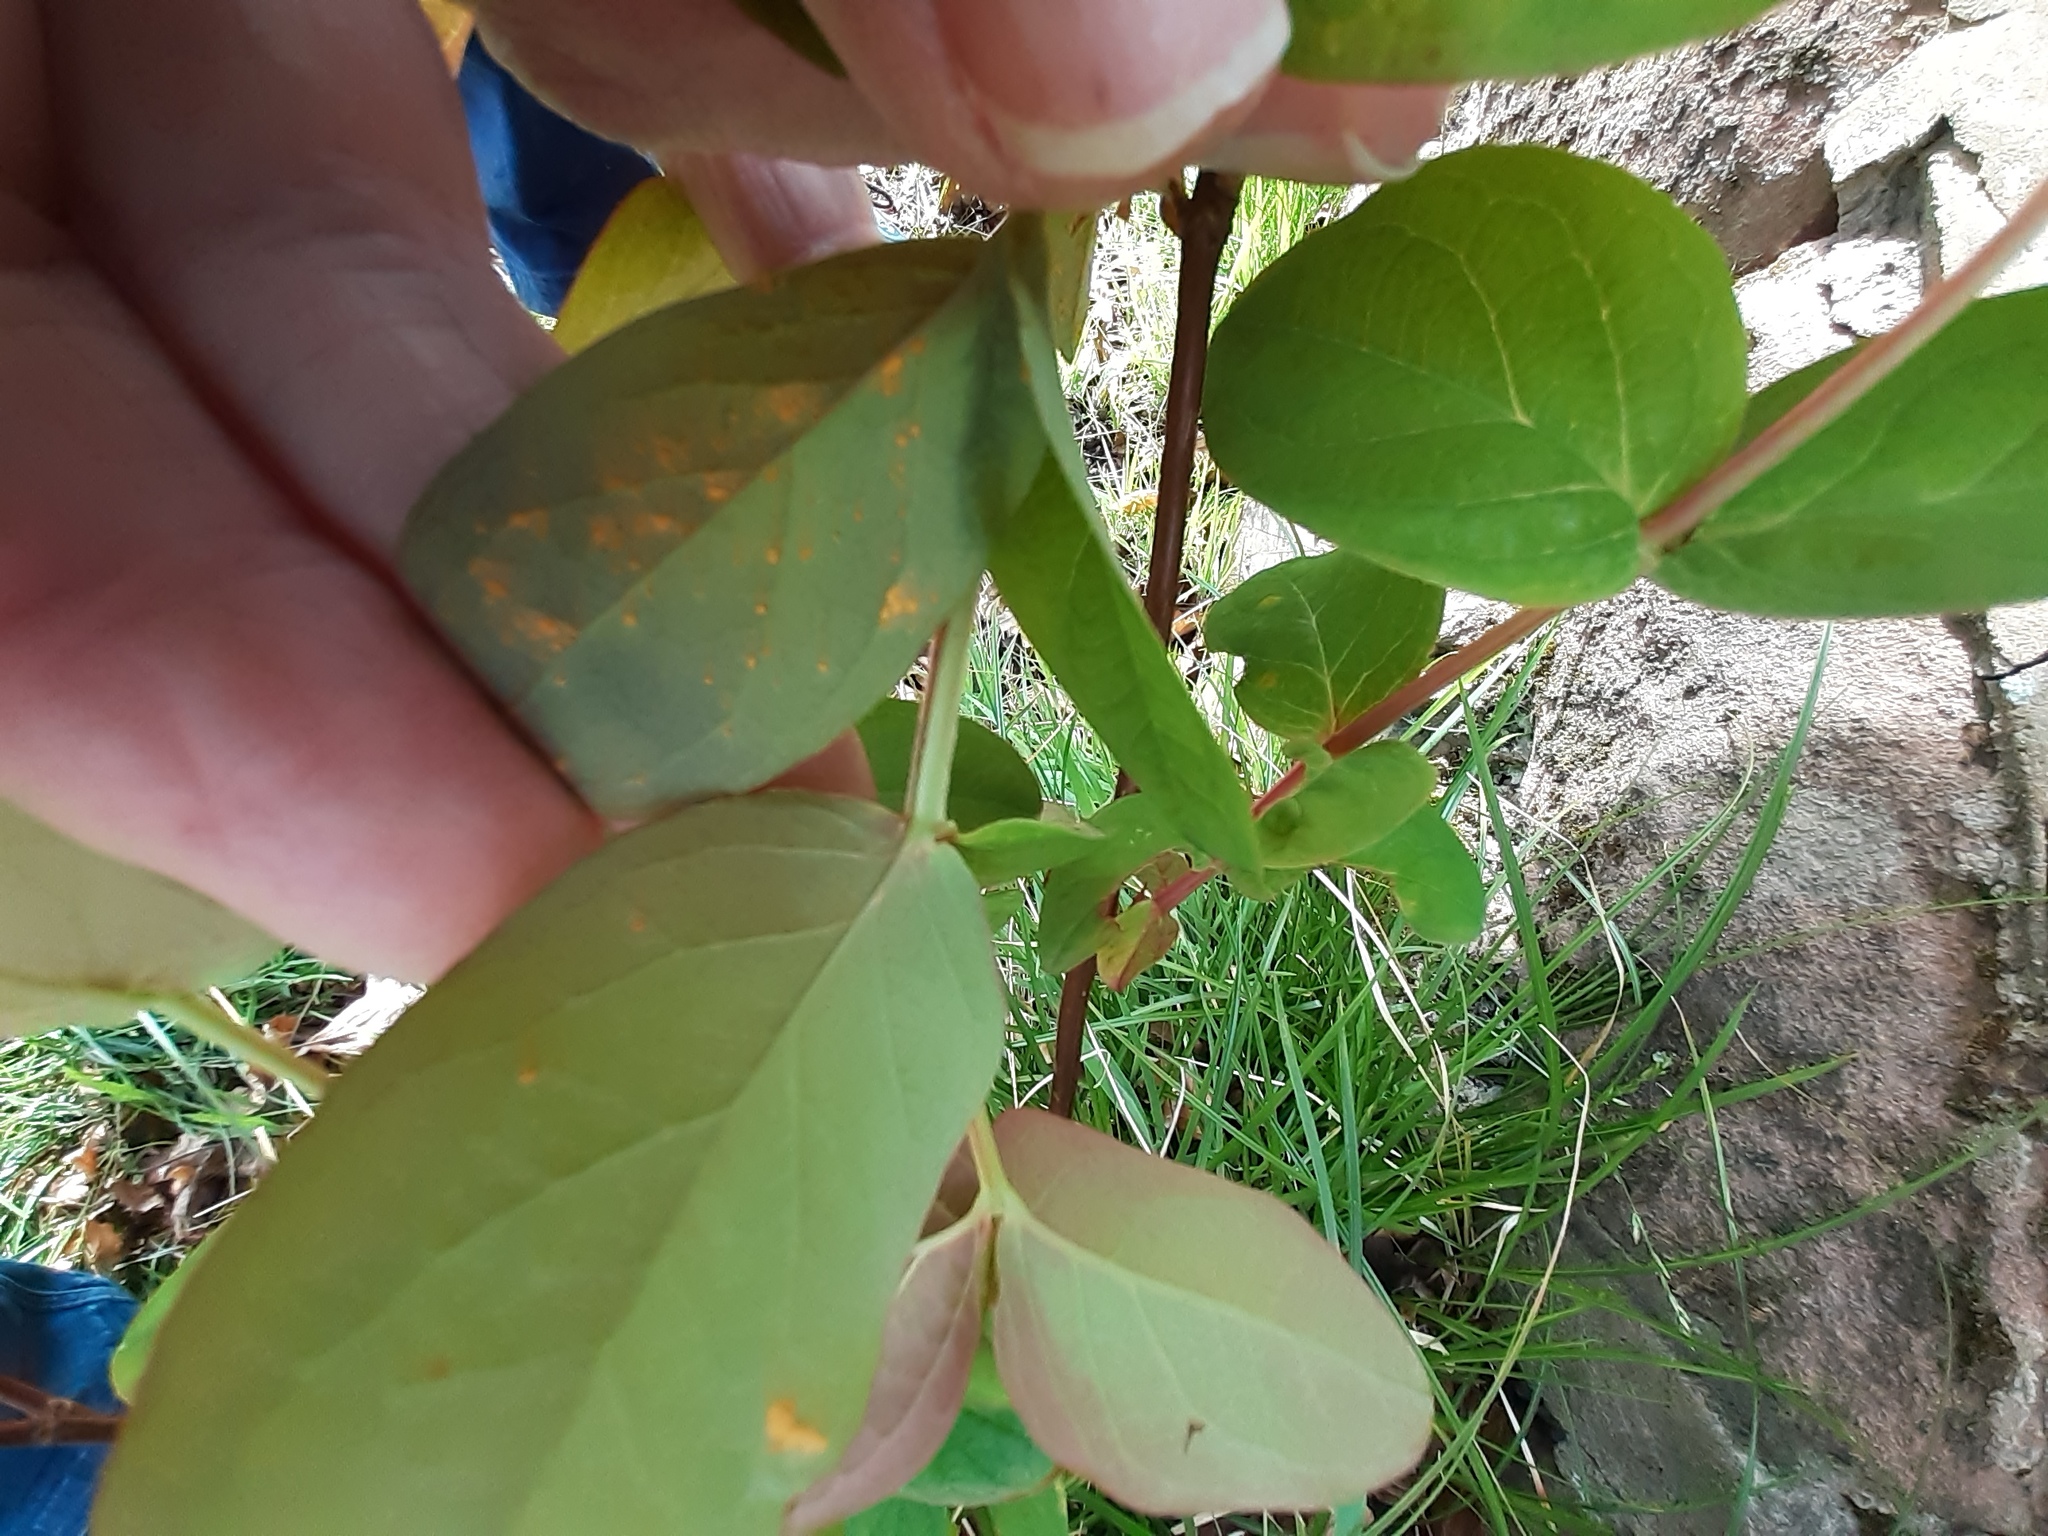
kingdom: Fungi
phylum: Basidiomycota
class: Pucciniomycetes
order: Pucciniales
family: Melampsoraceae
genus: Melampsora
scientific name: Melampsora
